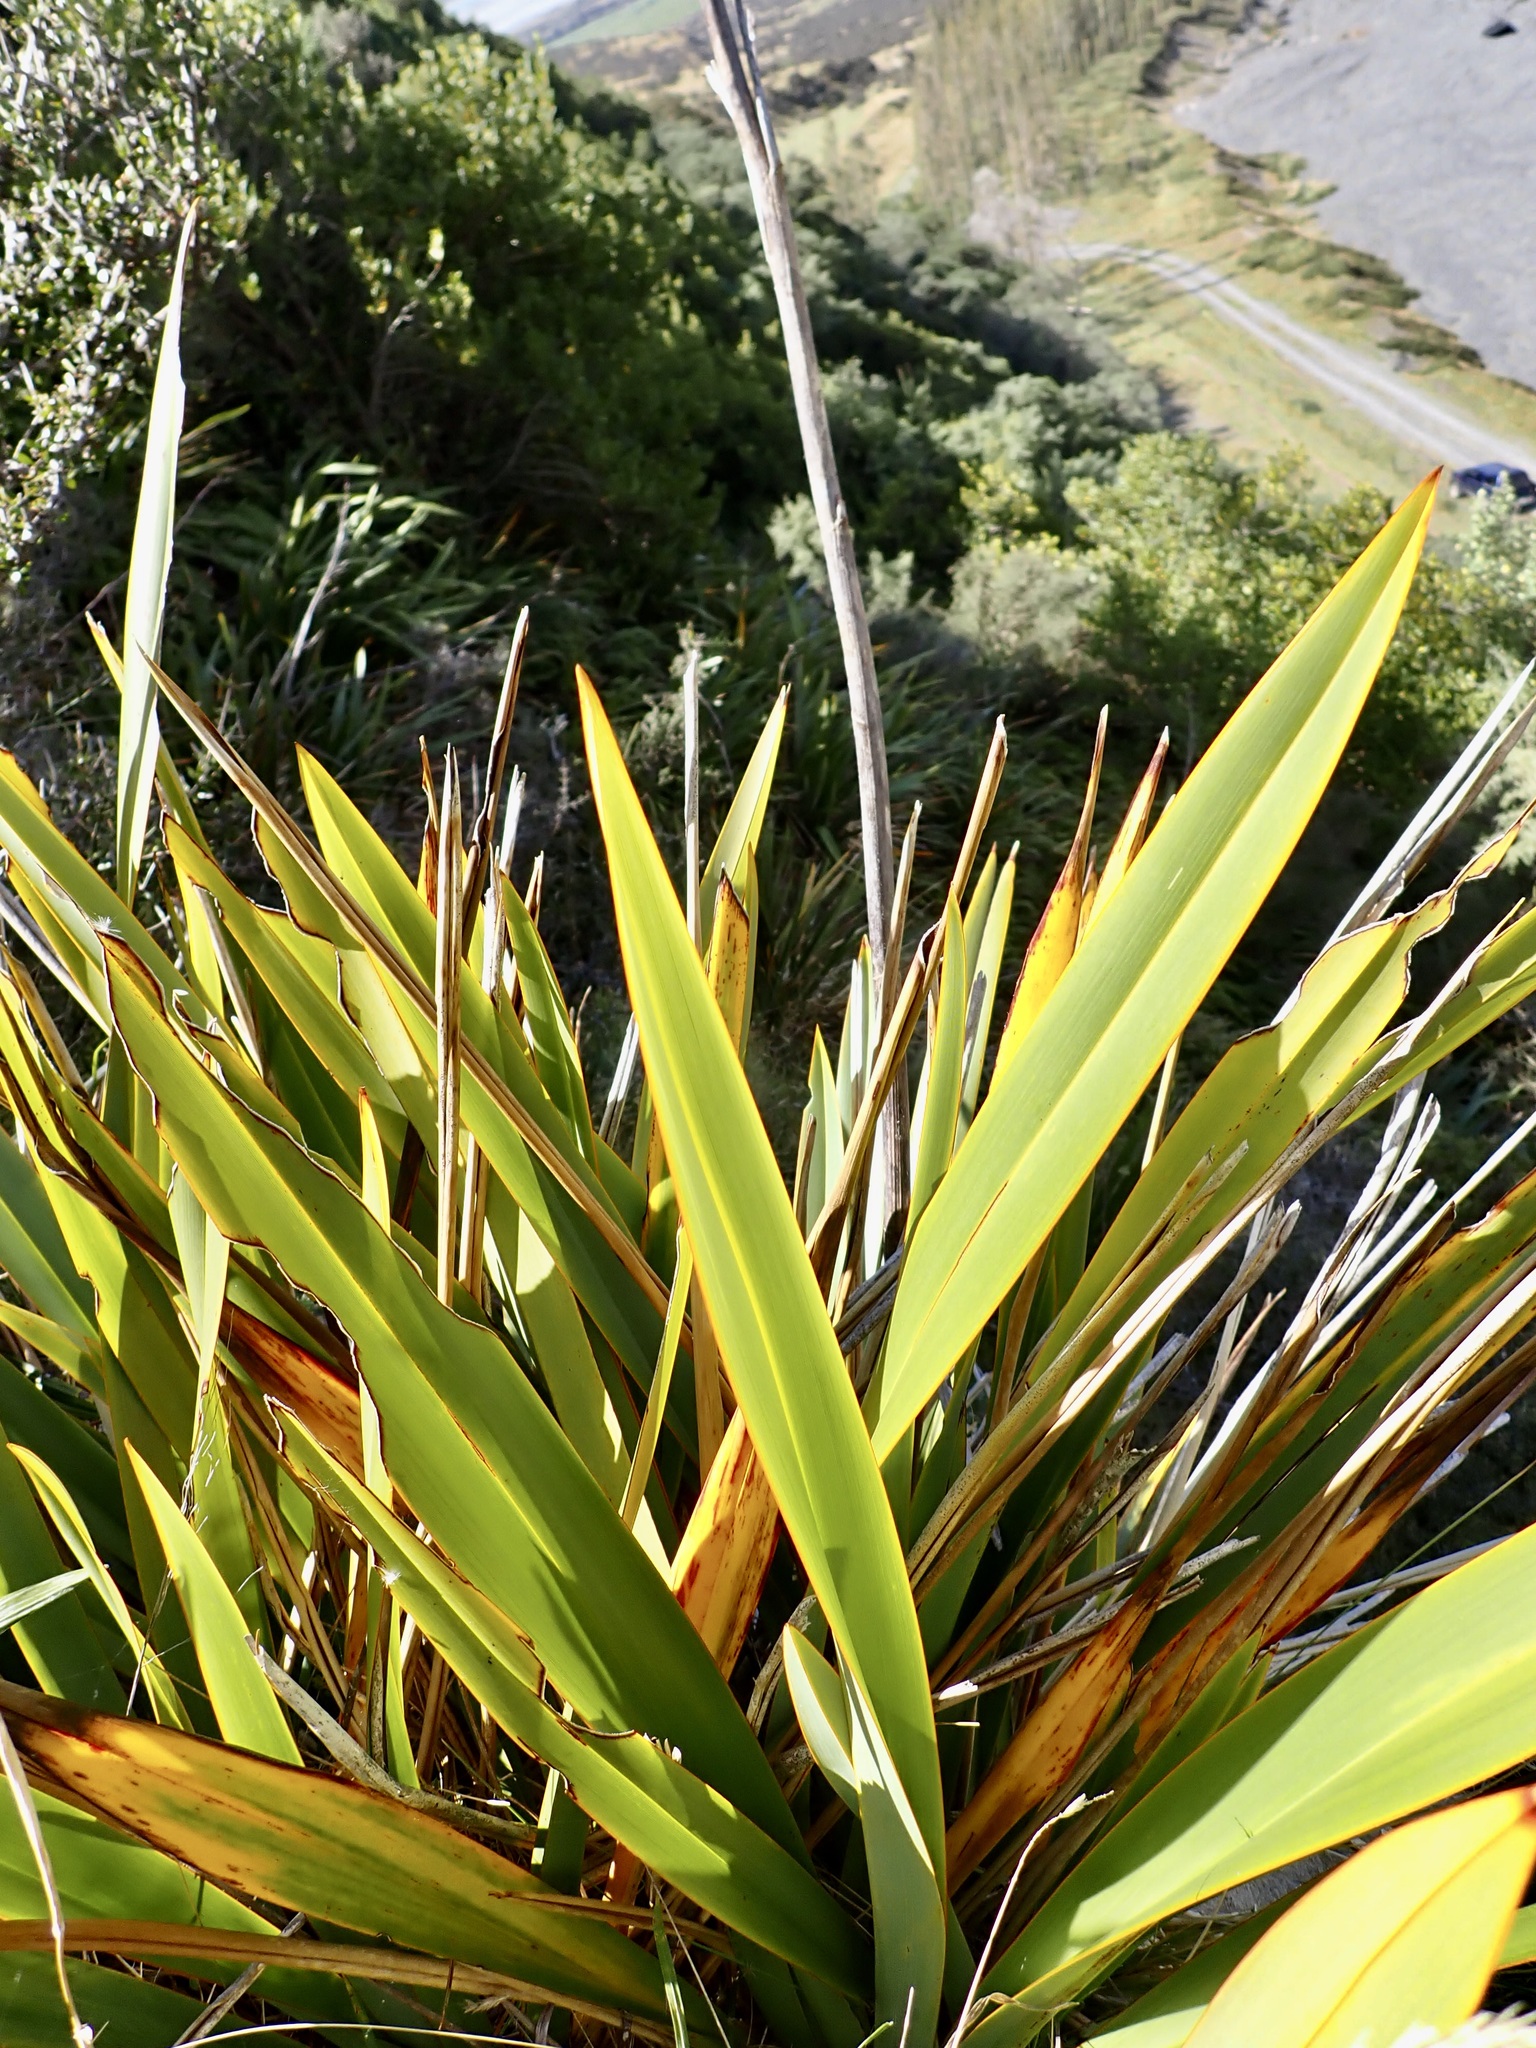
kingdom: Plantae
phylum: Tracheophyta
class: Liliopsida
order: Asparagales
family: Asphodelaceae
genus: Phormium
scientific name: Phormium colensoi
